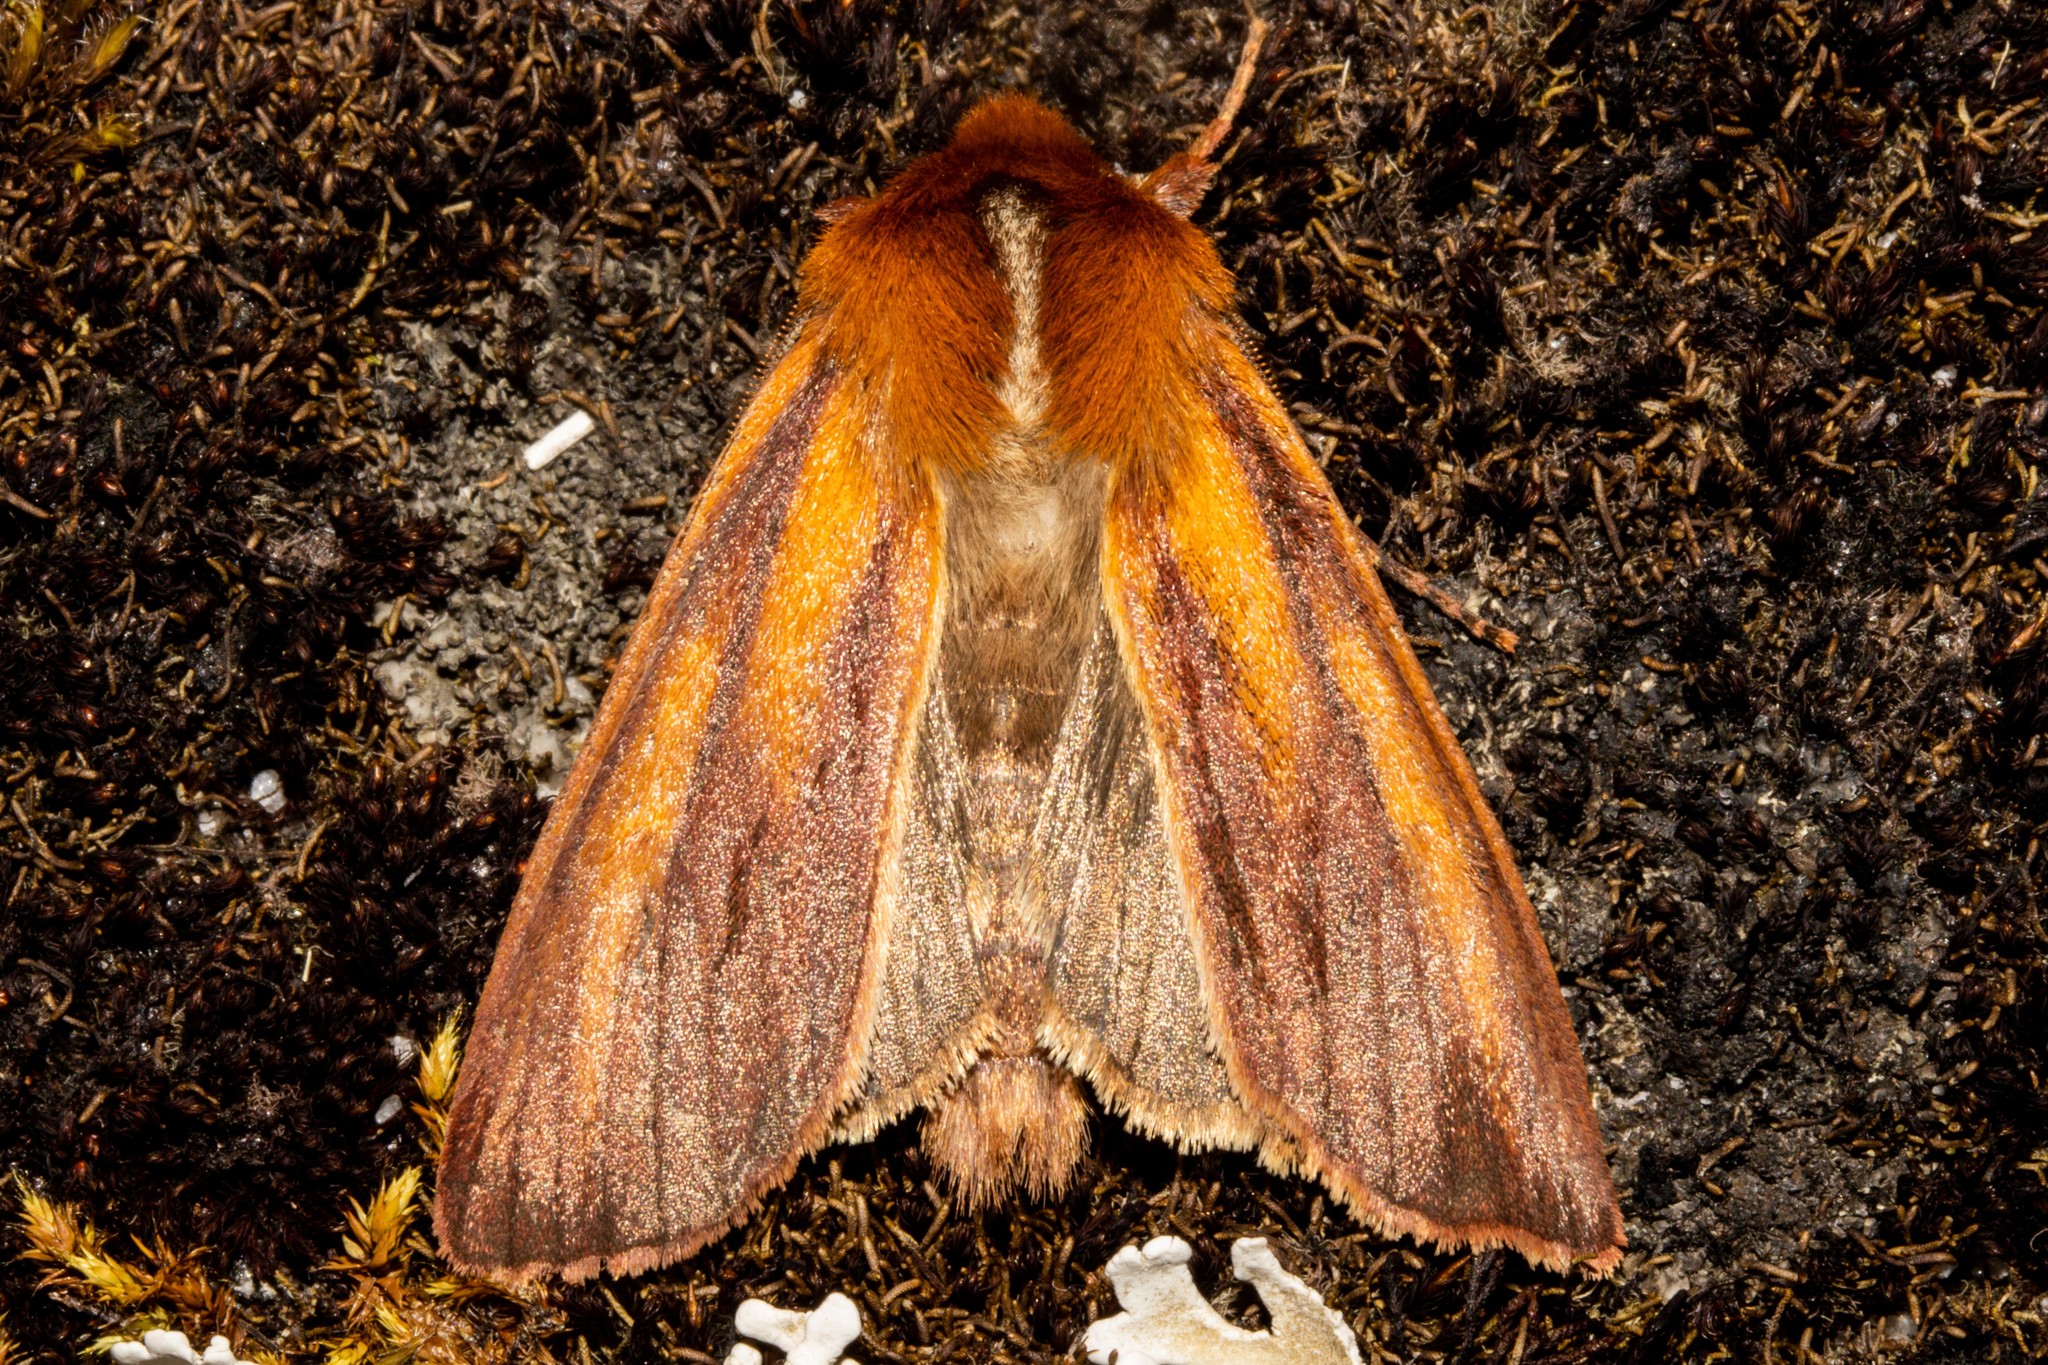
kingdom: Animalia
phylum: Arthropoda
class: Insecta
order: Lepidoptera
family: Noctuidae
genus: Ichneutica
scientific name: Ichneutica
